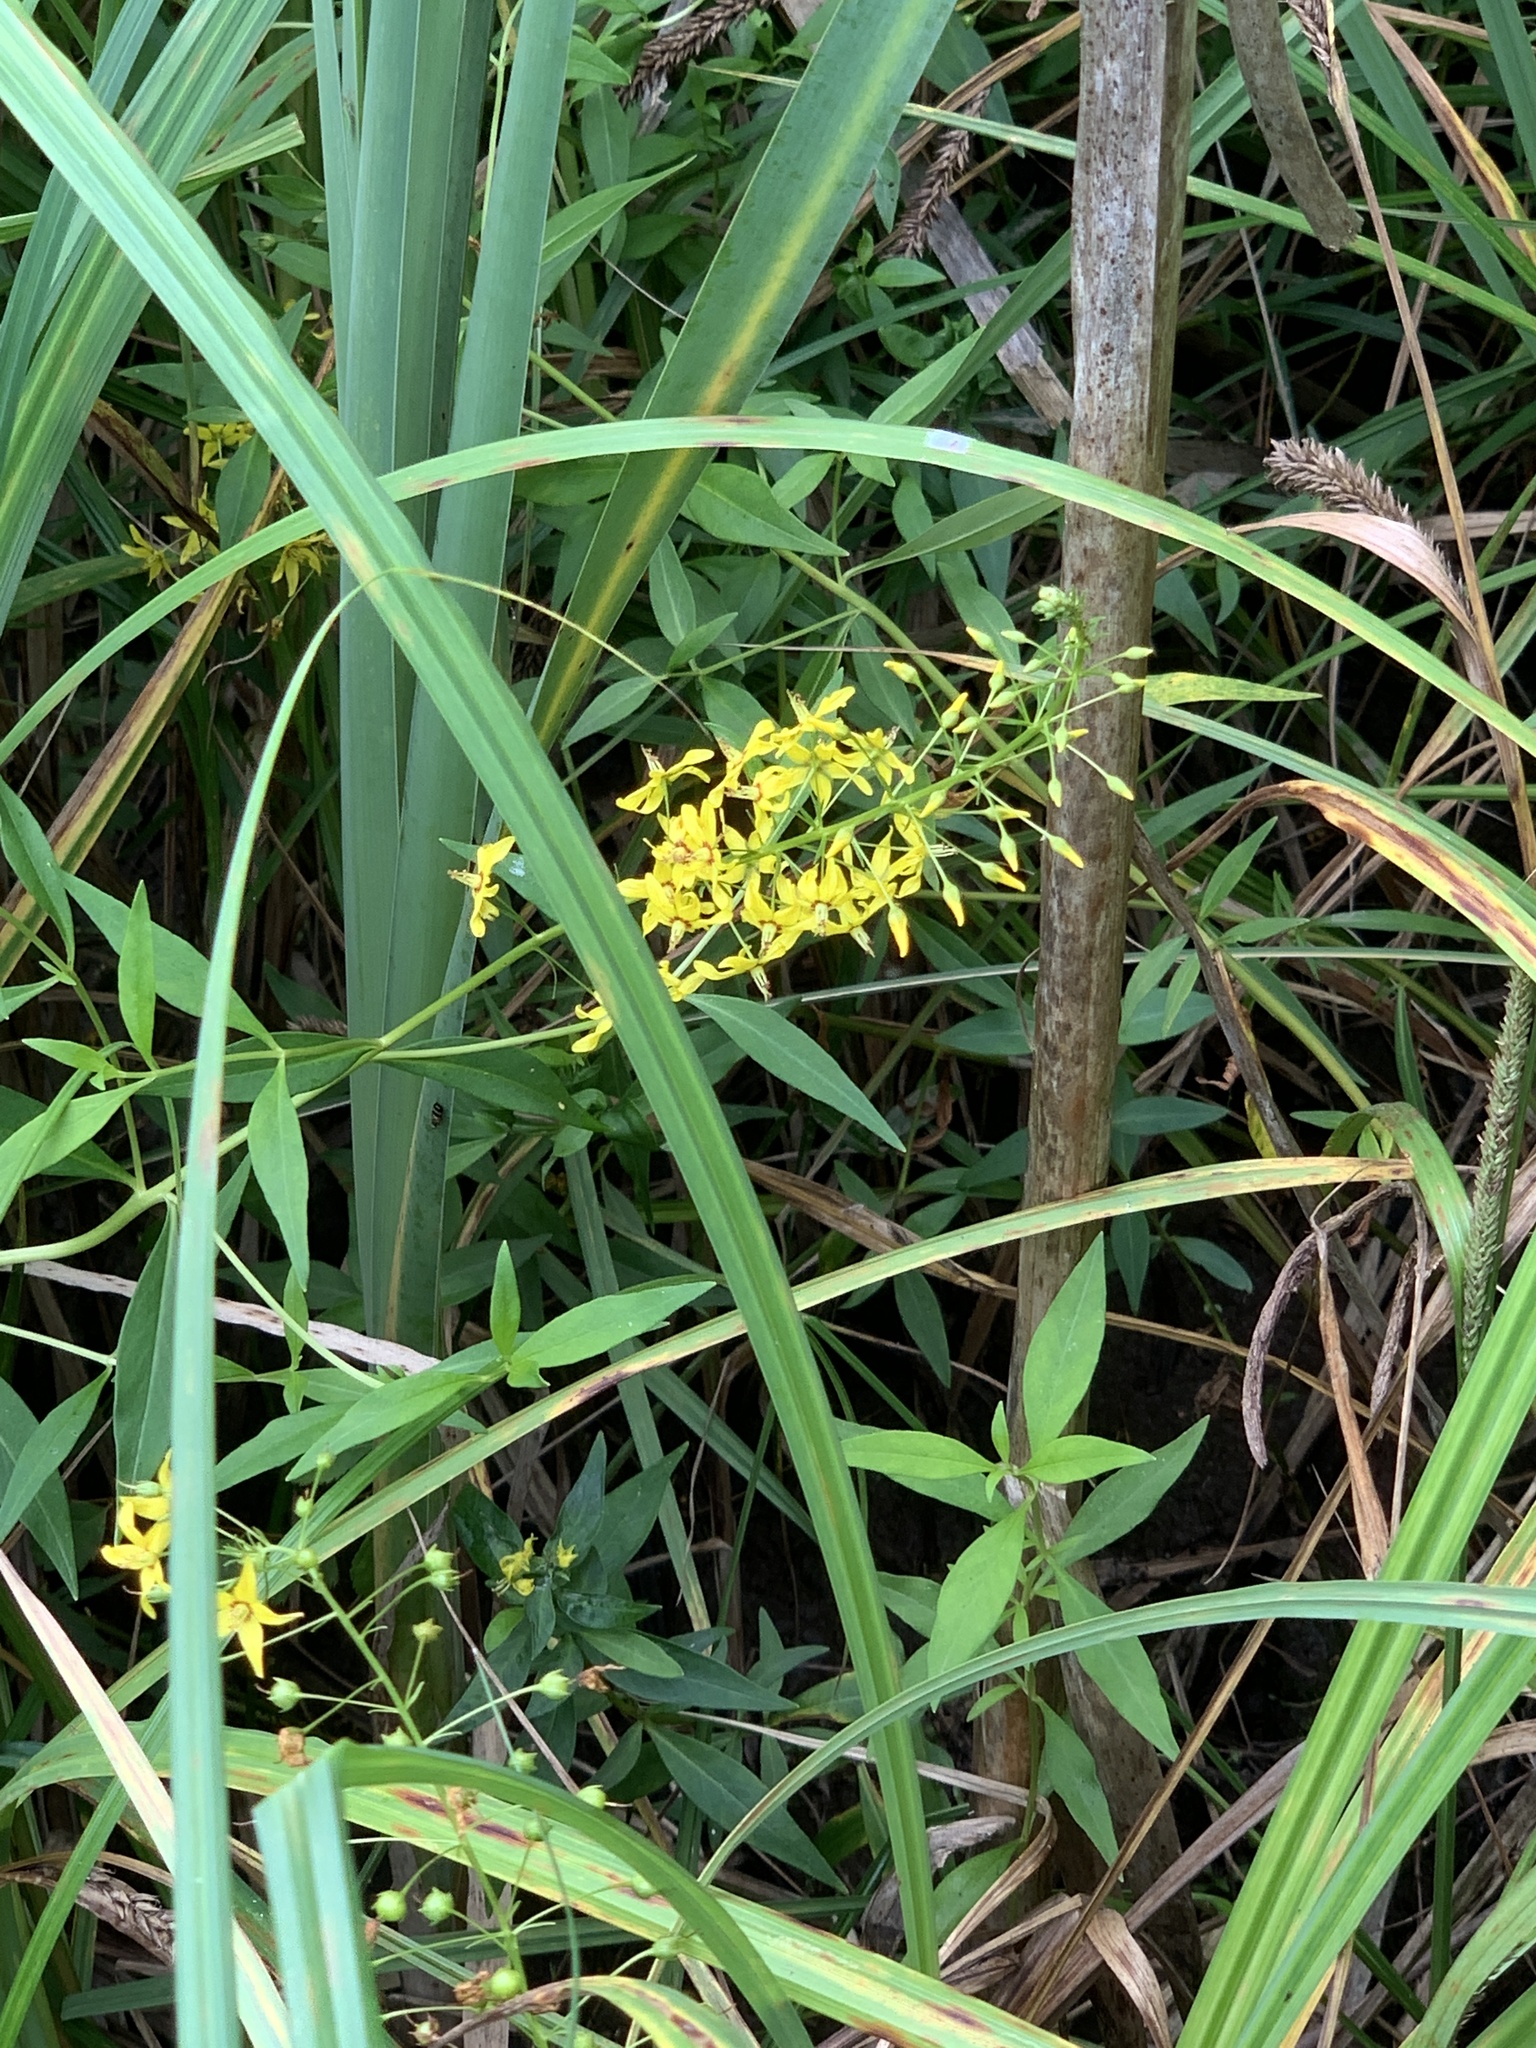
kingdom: Plantae
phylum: Tracheophyta
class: Magnoliopsida
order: Ericales
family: Primulaceae
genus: Lysimachia
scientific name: Lysimachia terrestris
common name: Lake loosestrife
